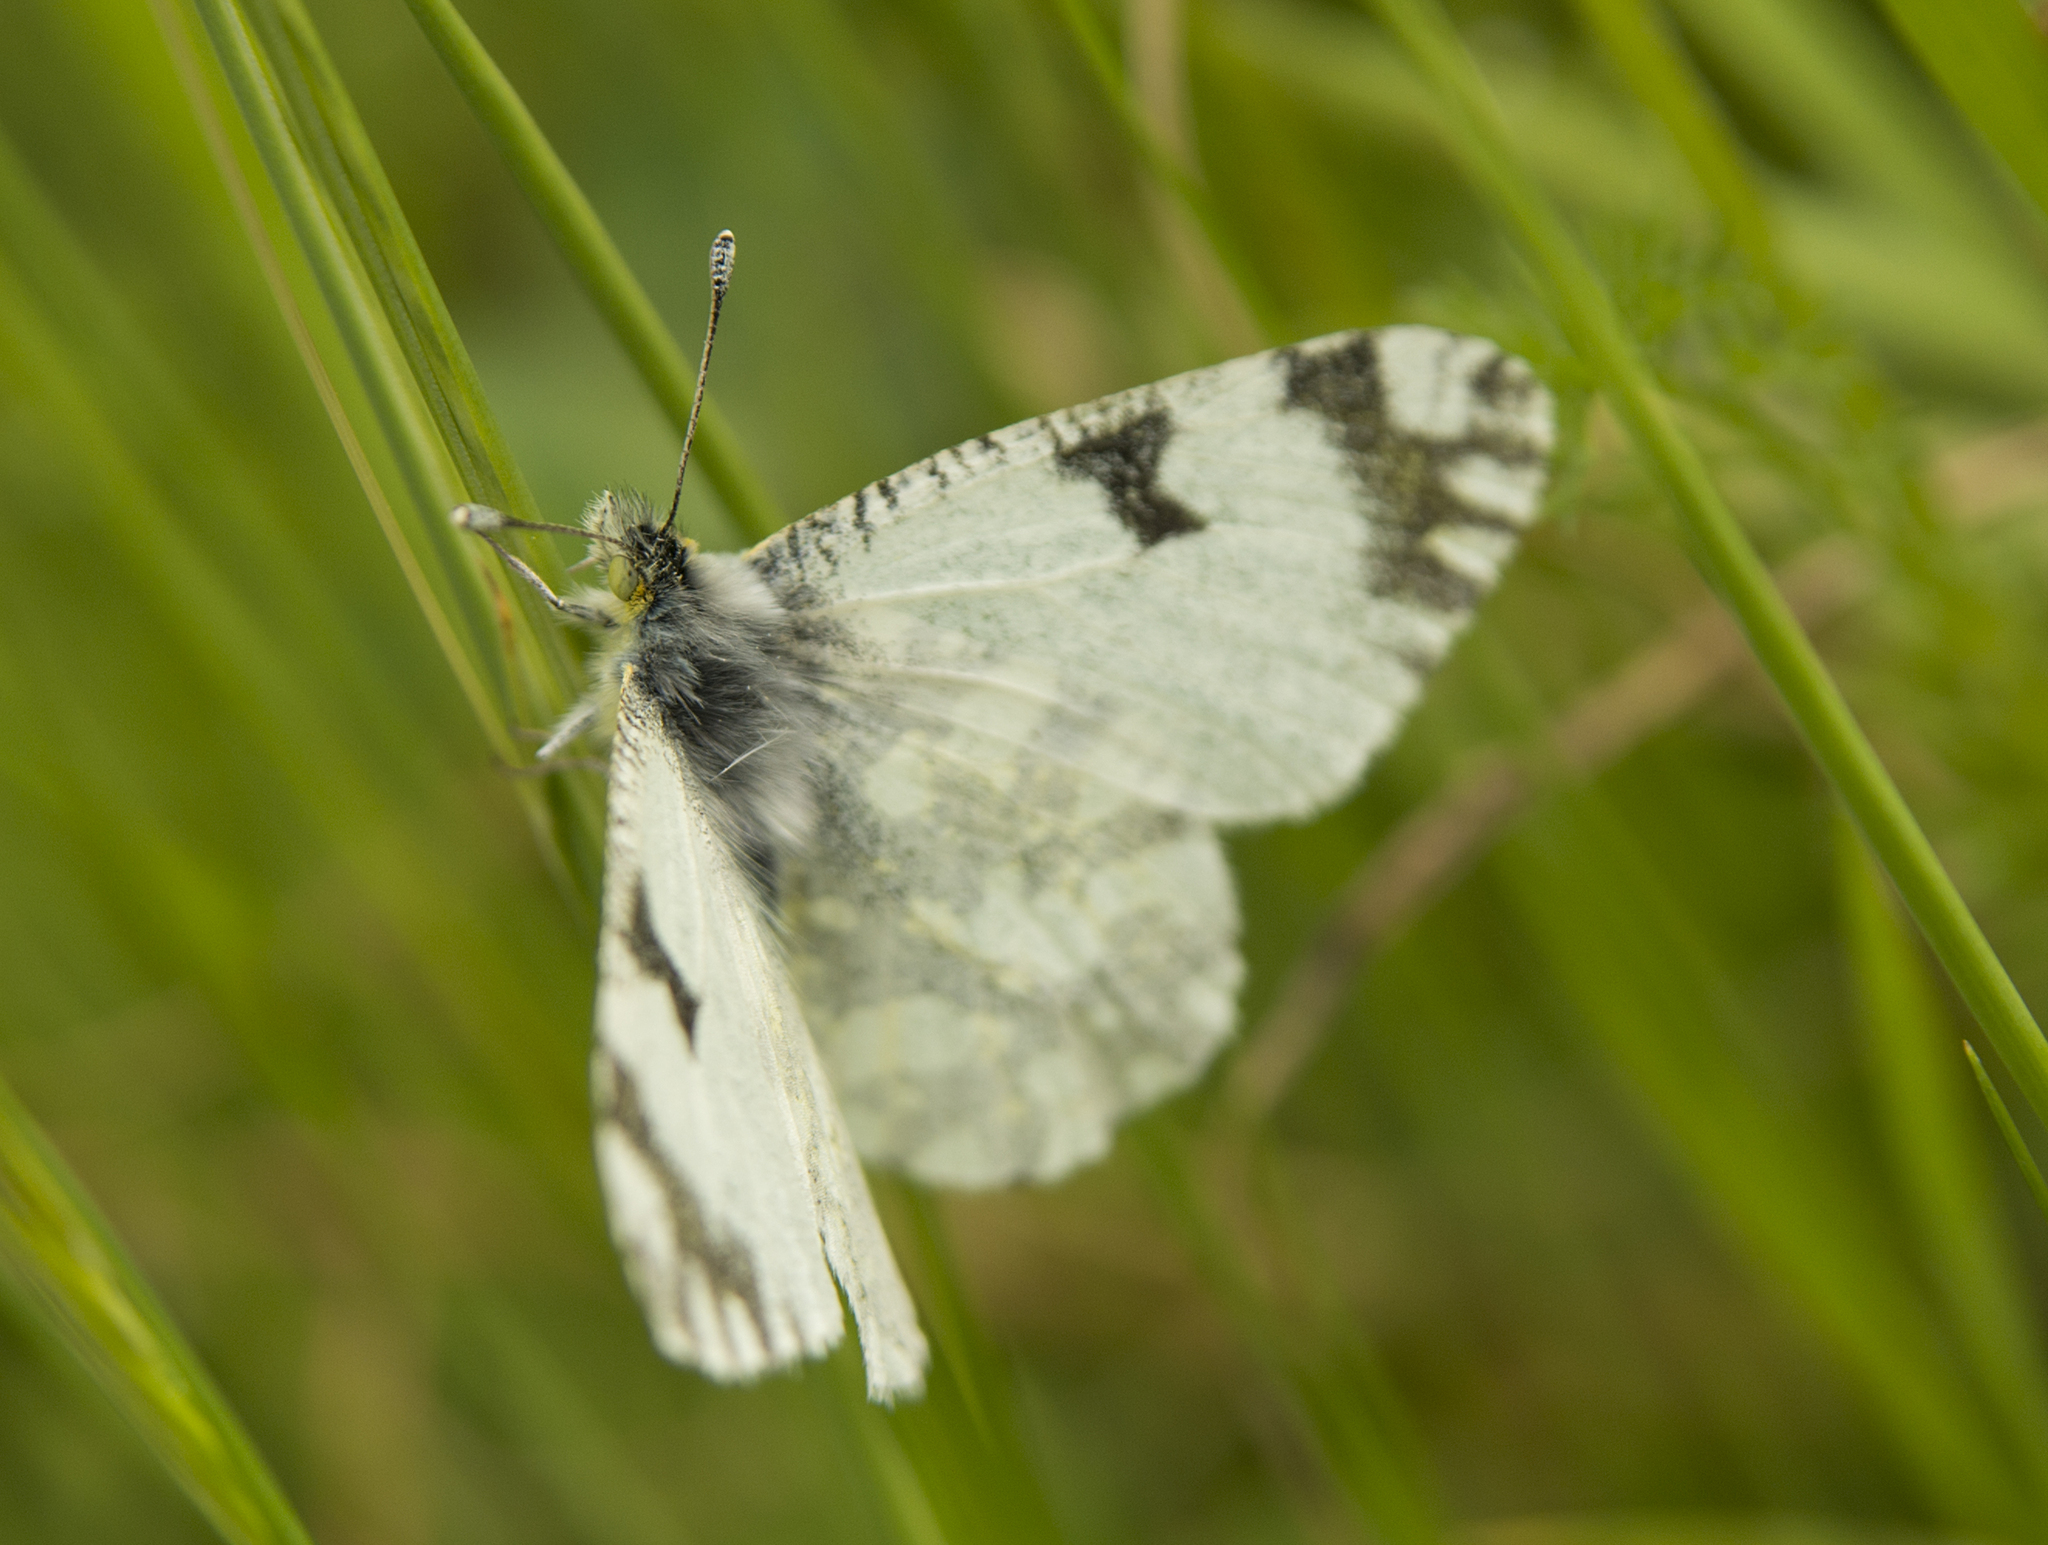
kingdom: Animalia
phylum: Arthropoda
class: Insecta
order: Lepidoptera
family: Pieridae
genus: Euchloe
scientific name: Euchloe ausonia
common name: Eastern dappled white
